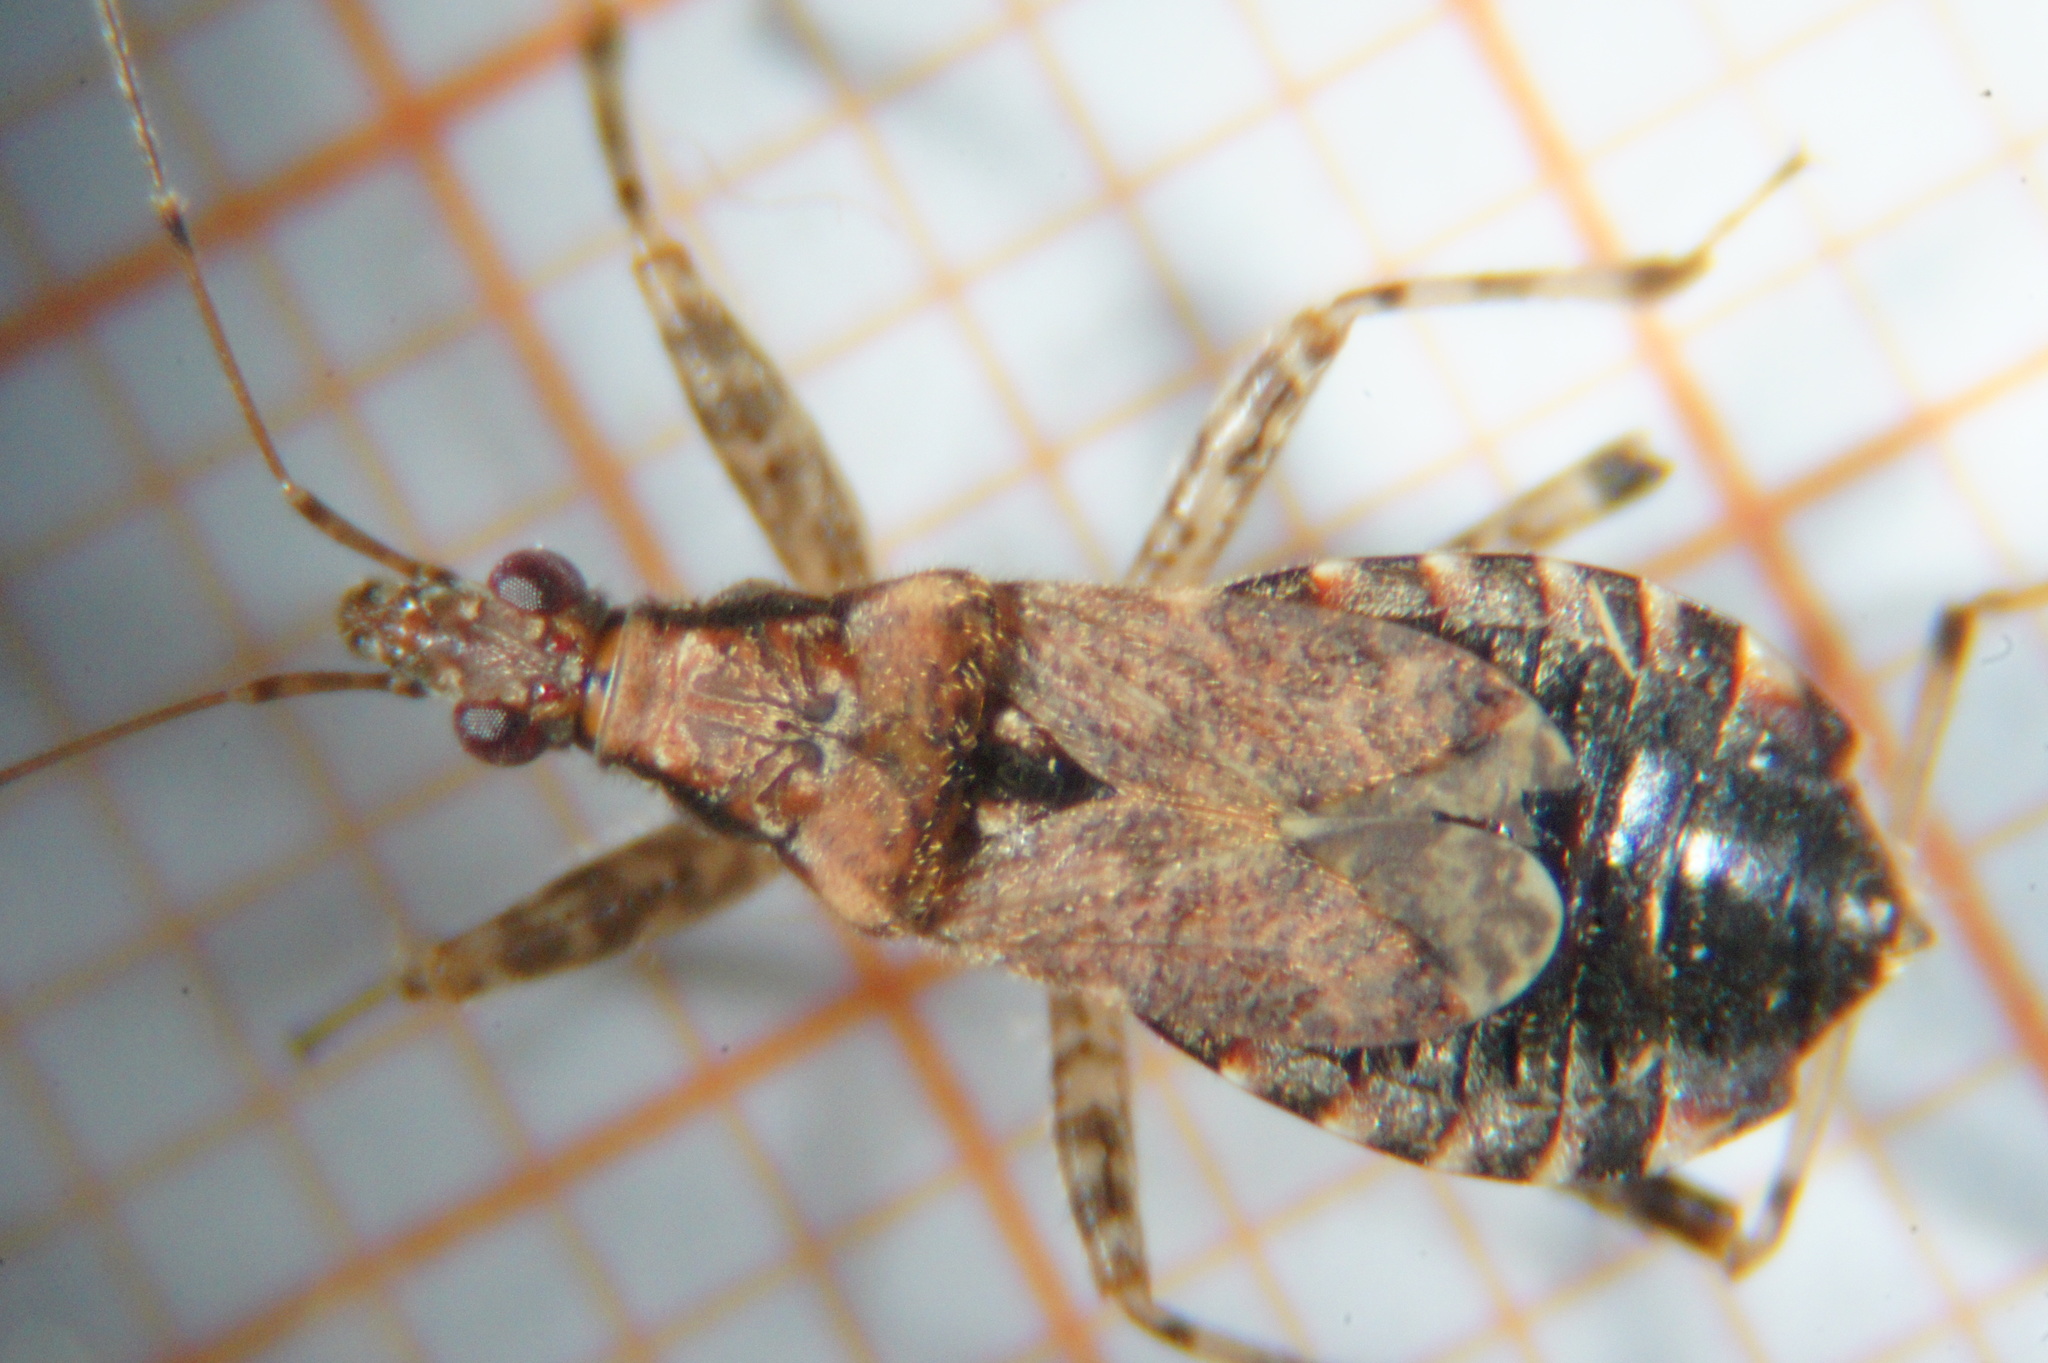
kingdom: Animalia
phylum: Arthropoda
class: Insecta
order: Hemiptera
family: Nabidae
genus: Himacerus
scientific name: Himacerus mirmicoides
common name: Ant damsel bug
